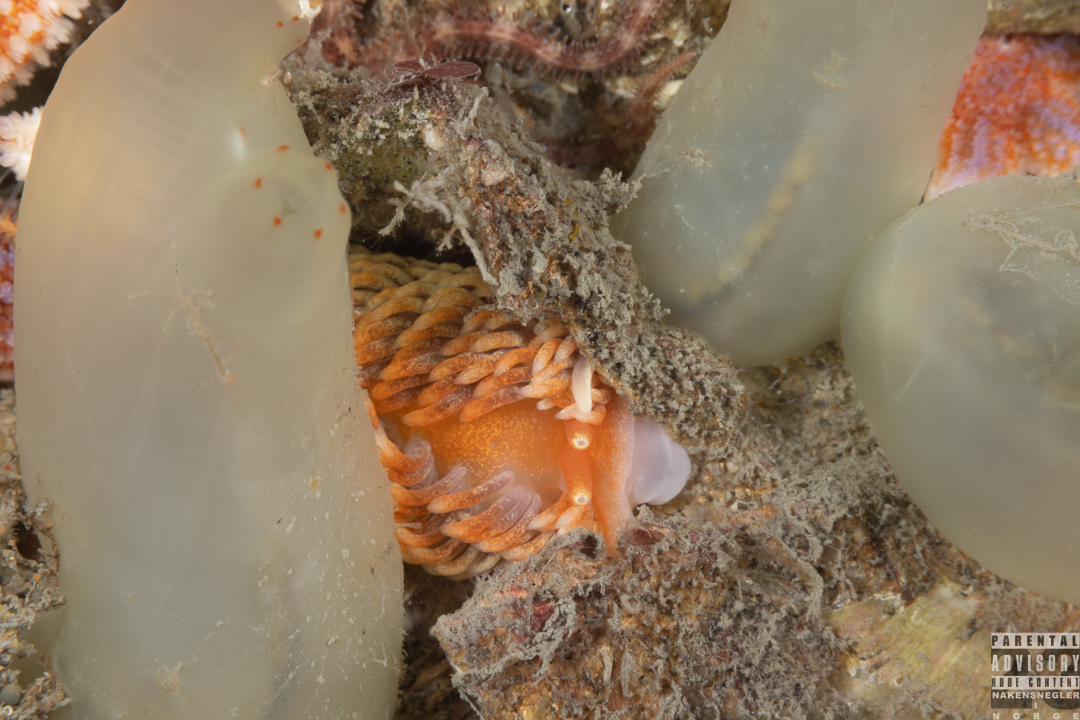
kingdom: Animalia
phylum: Mollusca
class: Gastropoda
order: Nudibranchia
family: Aeolidiidae
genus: Aeolidiella
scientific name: Aeolidiella glauca
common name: Orange-brown aeolid
